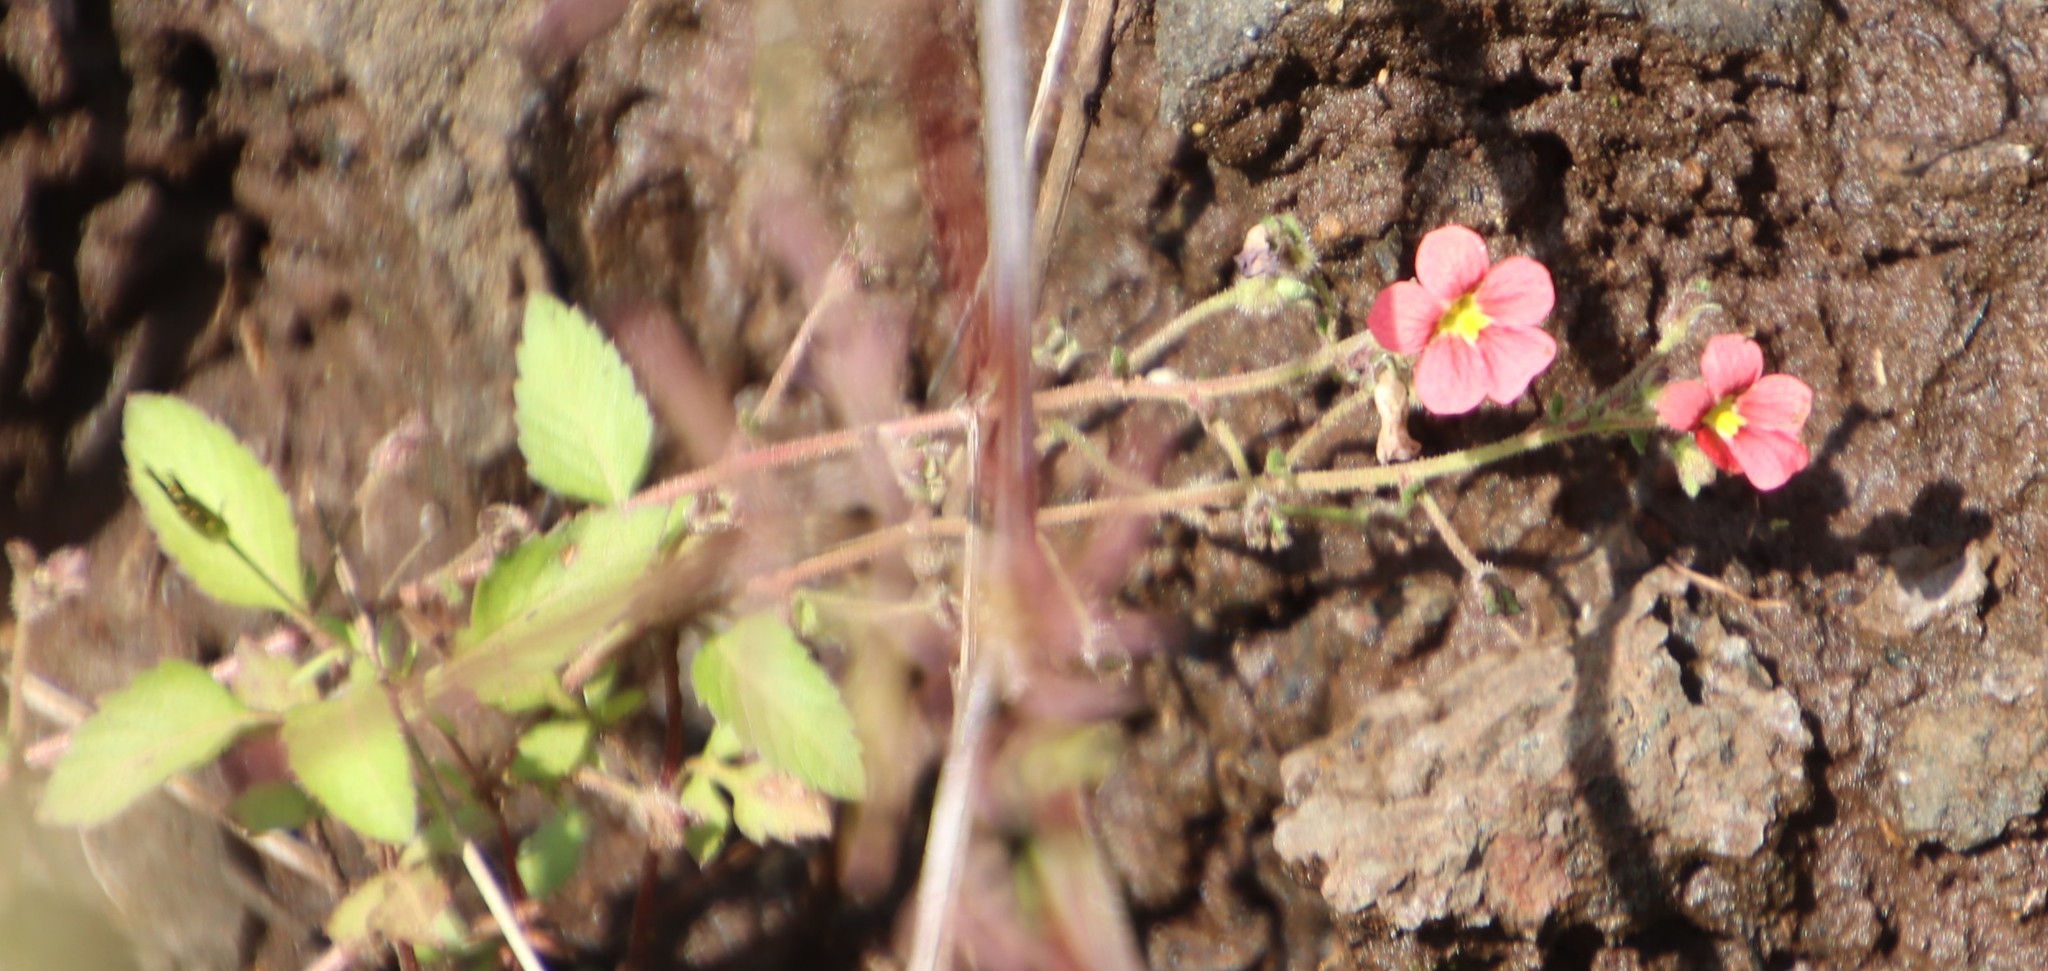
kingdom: Plantae
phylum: Tracheophyta
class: Magnoliopsida
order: Lamiales
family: Scrophulariaceae
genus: Jamesbrittenia
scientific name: Jamesbrittenia breviflora
